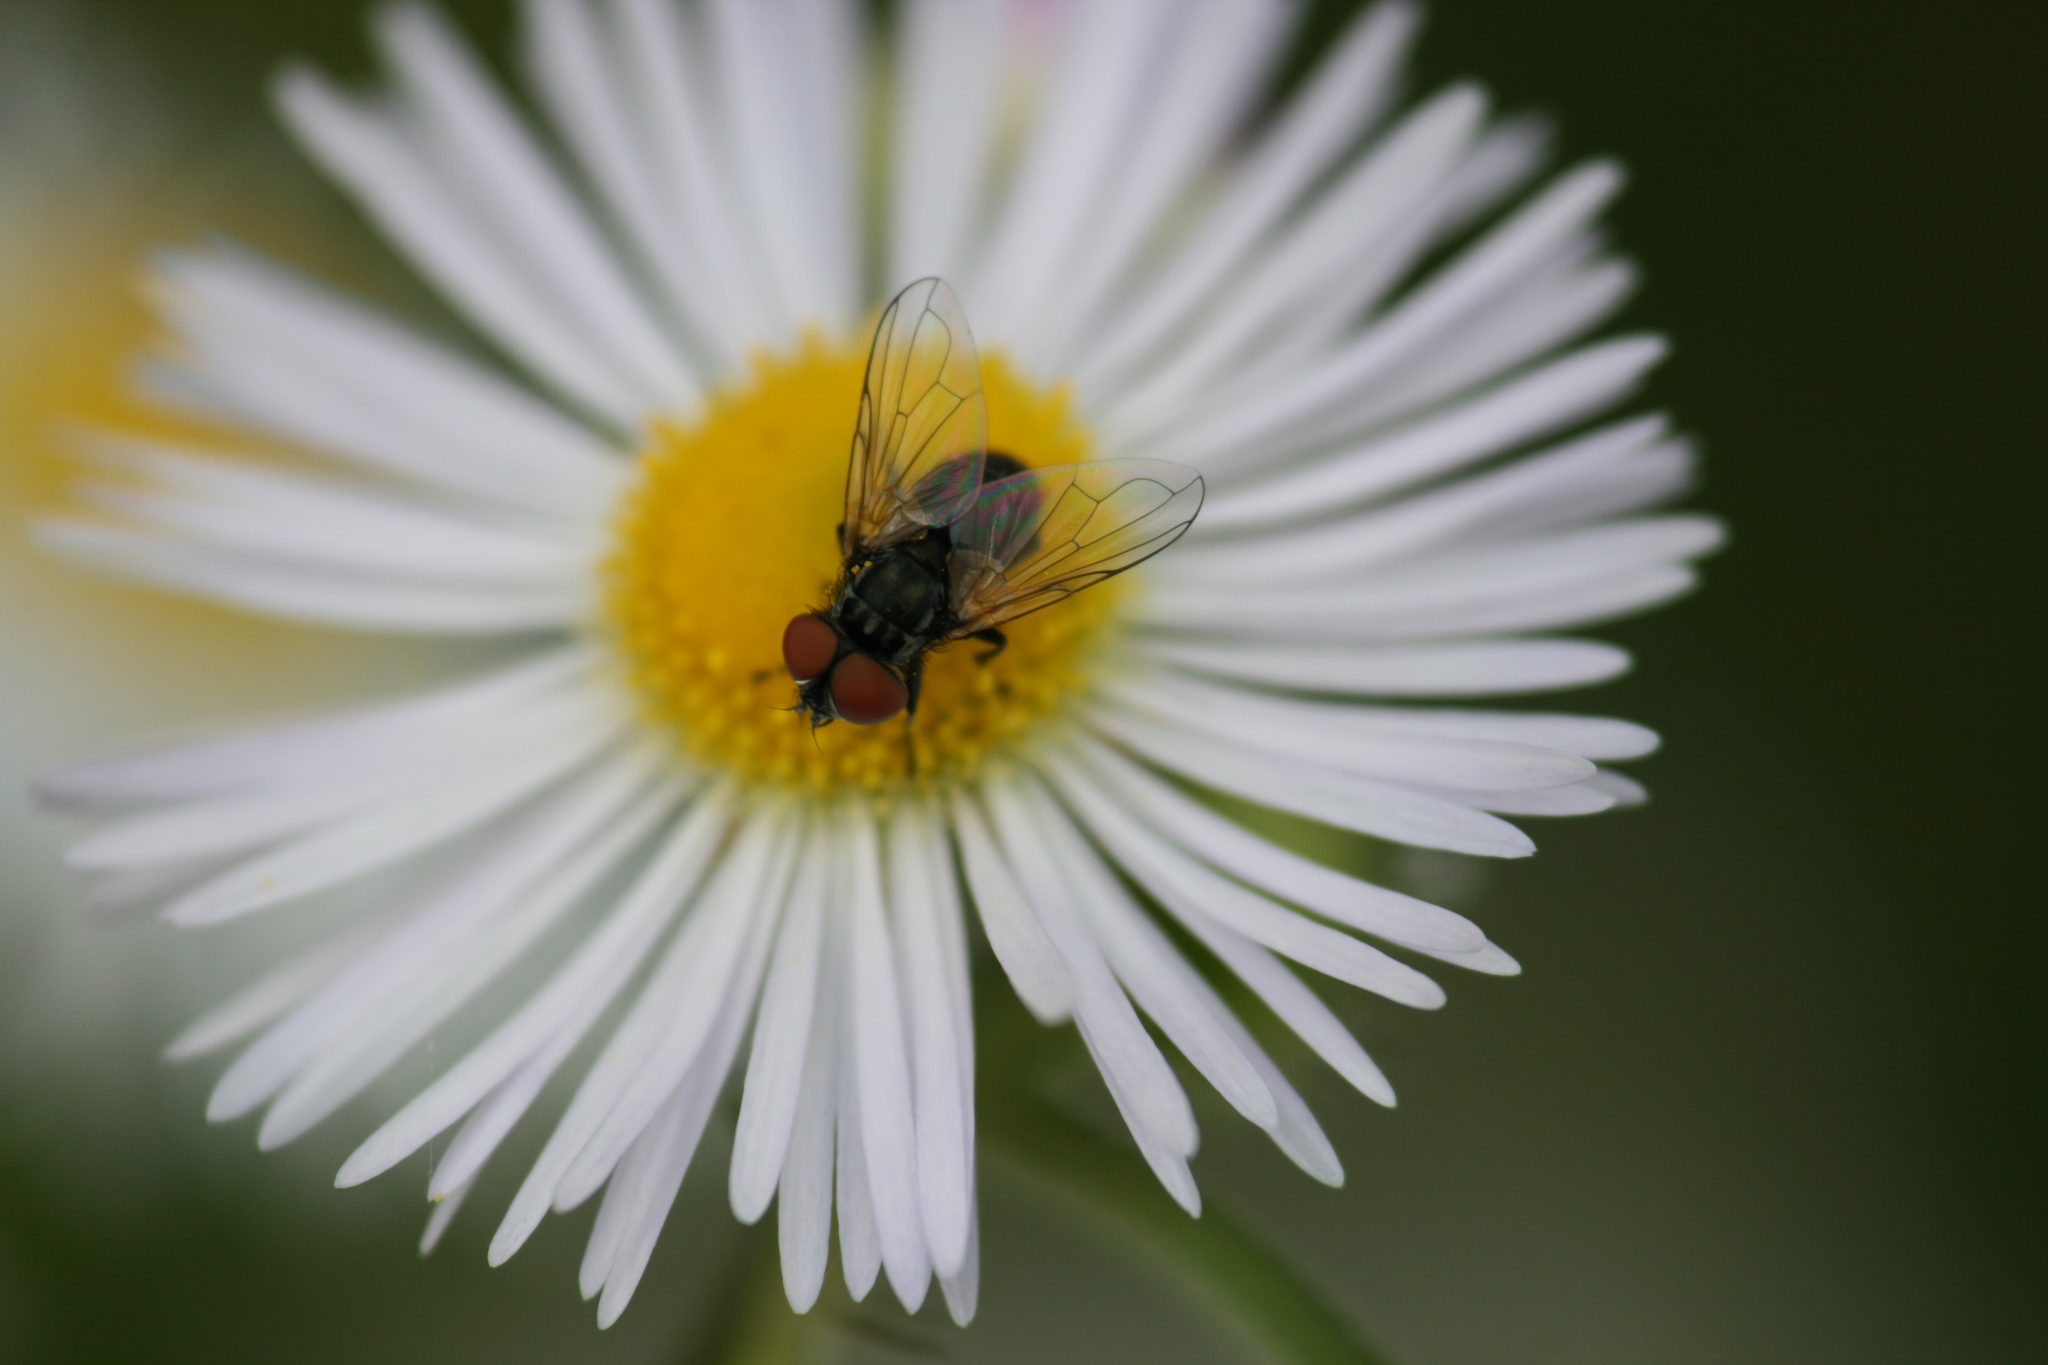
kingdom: Animalia
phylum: Arthropoda
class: Insecta
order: Diptera
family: Tachinidae
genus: Phasia
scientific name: Phasia obesa
